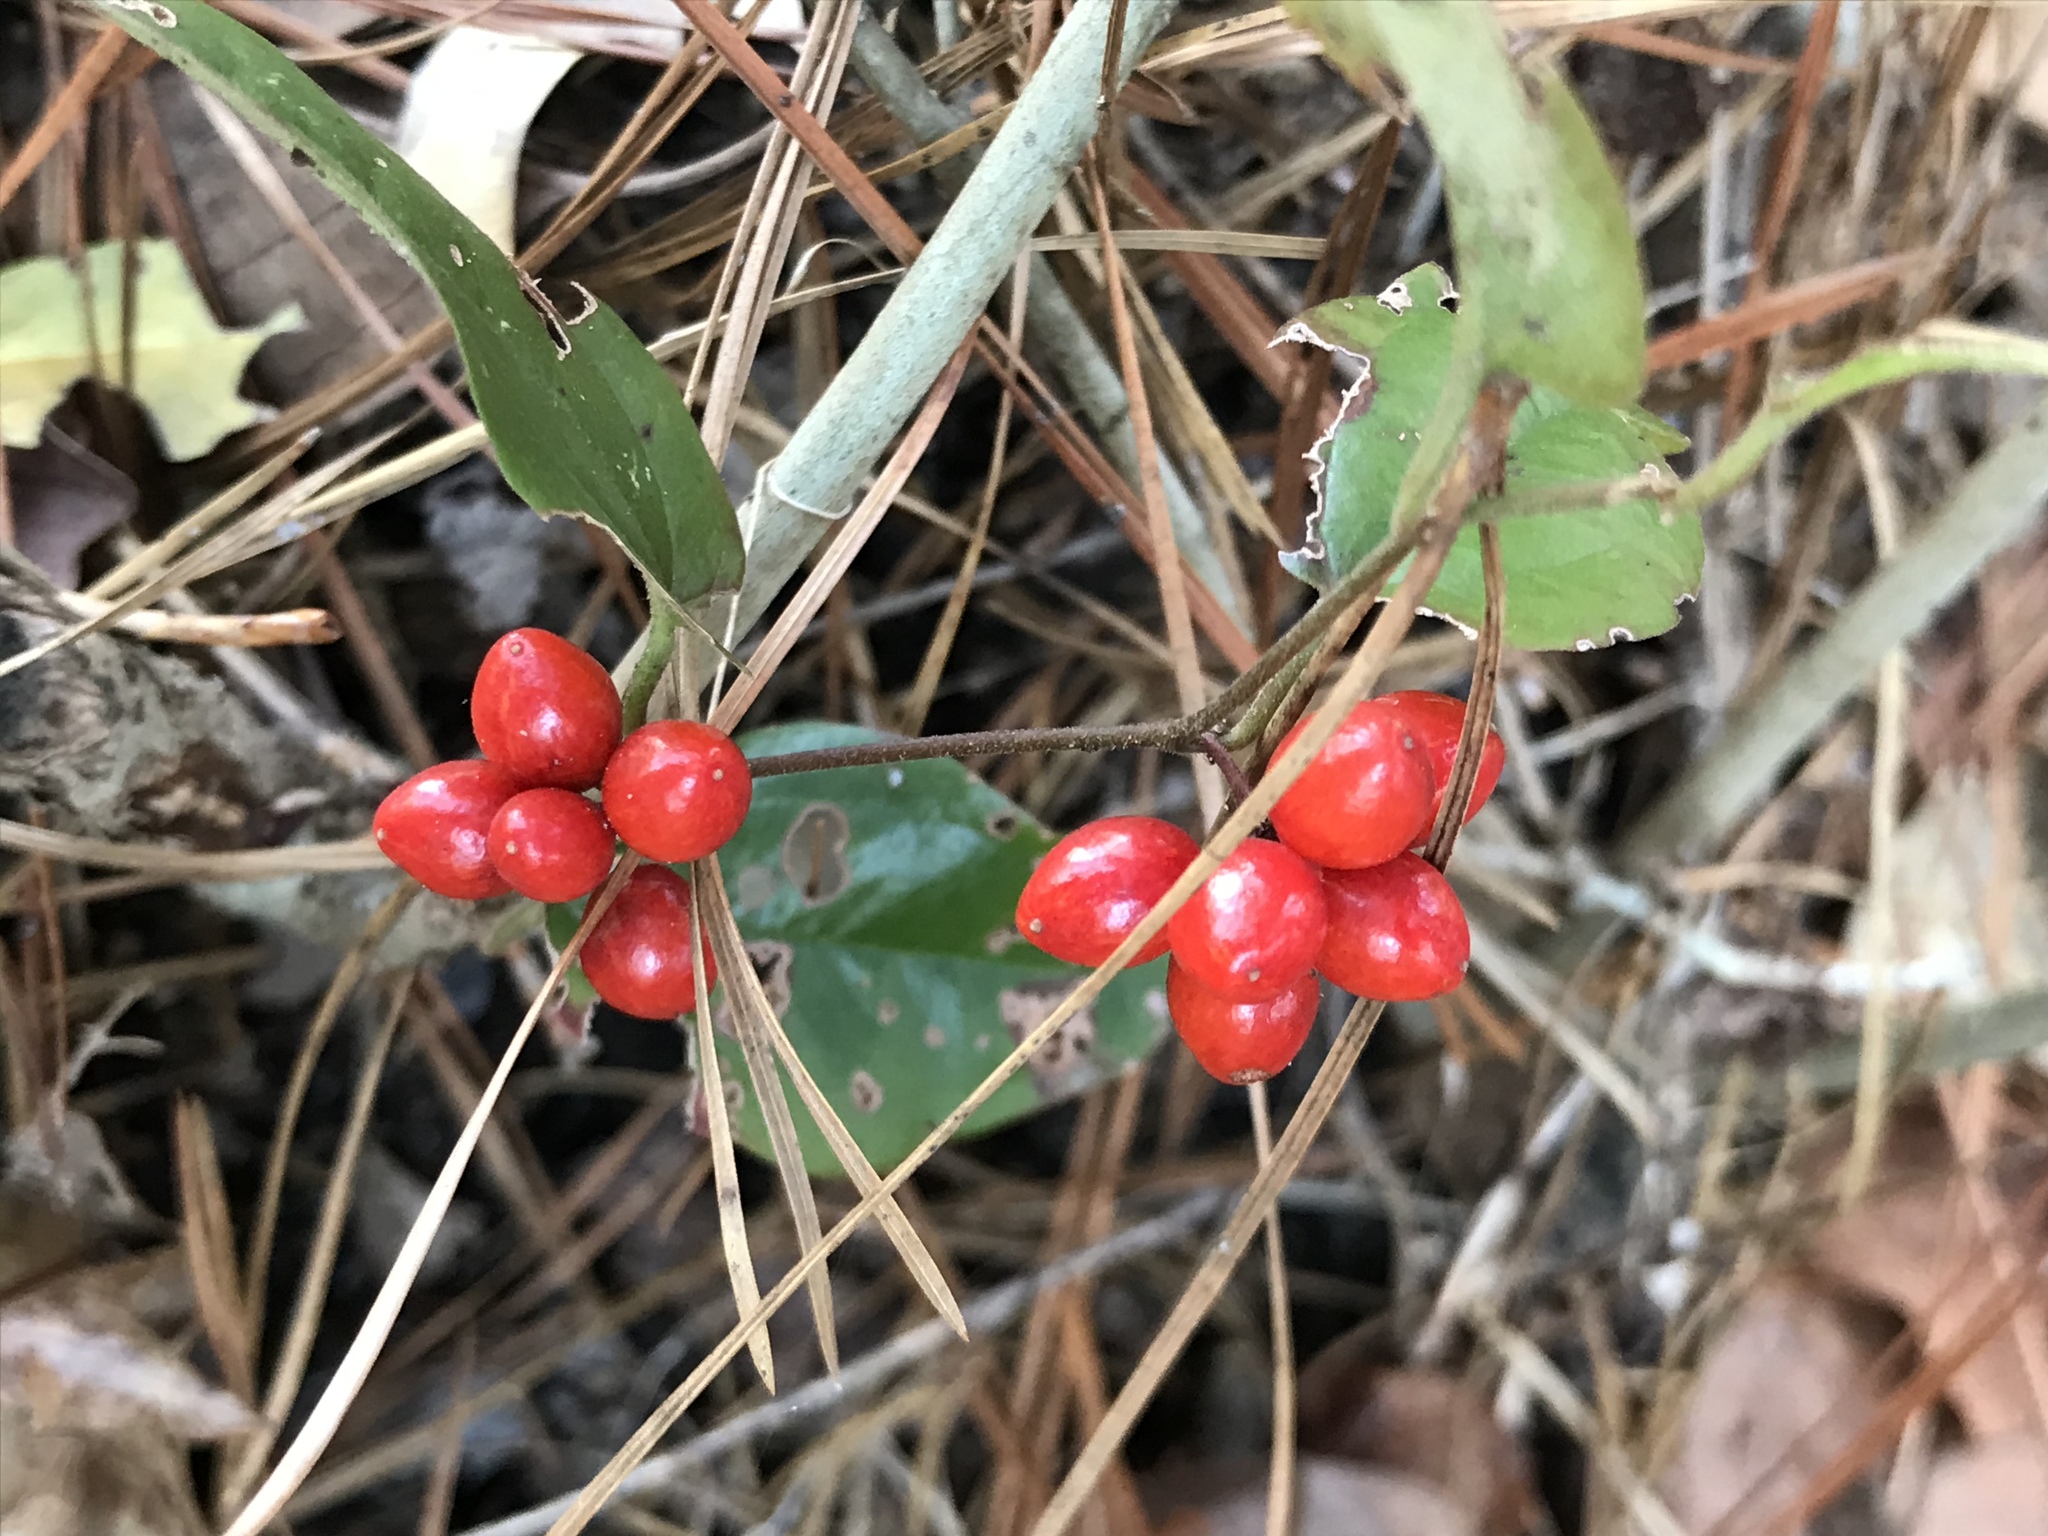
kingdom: Plantae
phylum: Tracheophyta
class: Liliopsida
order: Liliales
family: Smilacaceae
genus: Smilax
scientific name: Smilax pumila
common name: Sarsaparilla-vine
